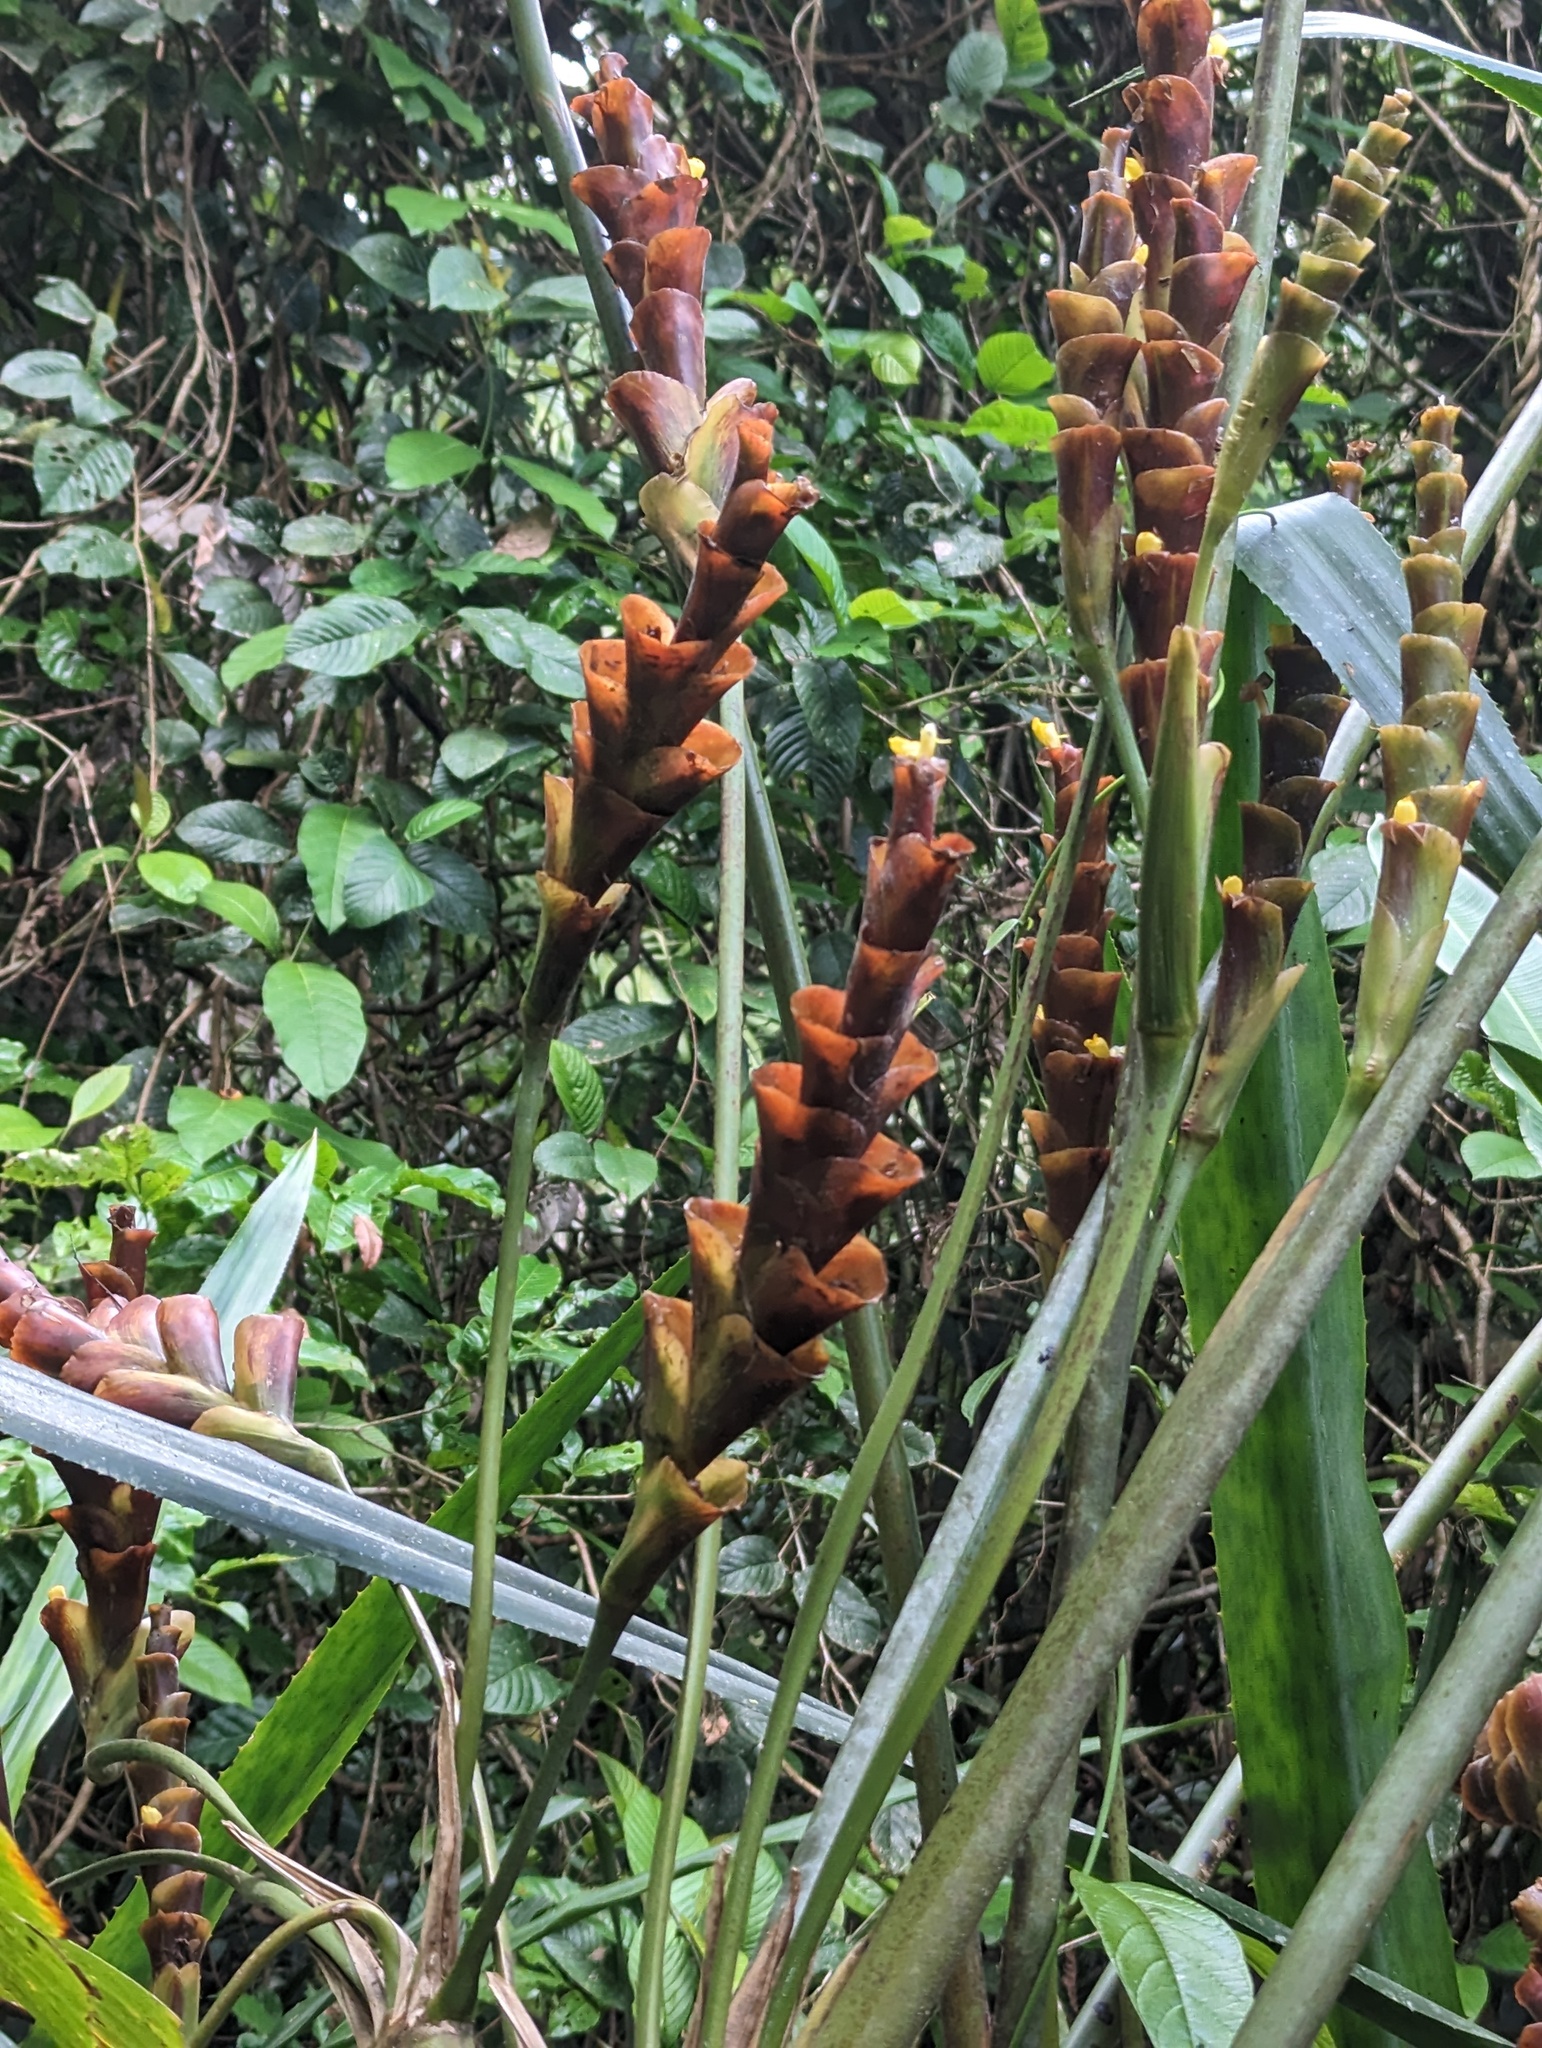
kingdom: Plantae
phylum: Tracheophyta
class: Liliopsida
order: Zingiberales
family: Marantaceae
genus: Calathea
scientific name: Calathea lutea
